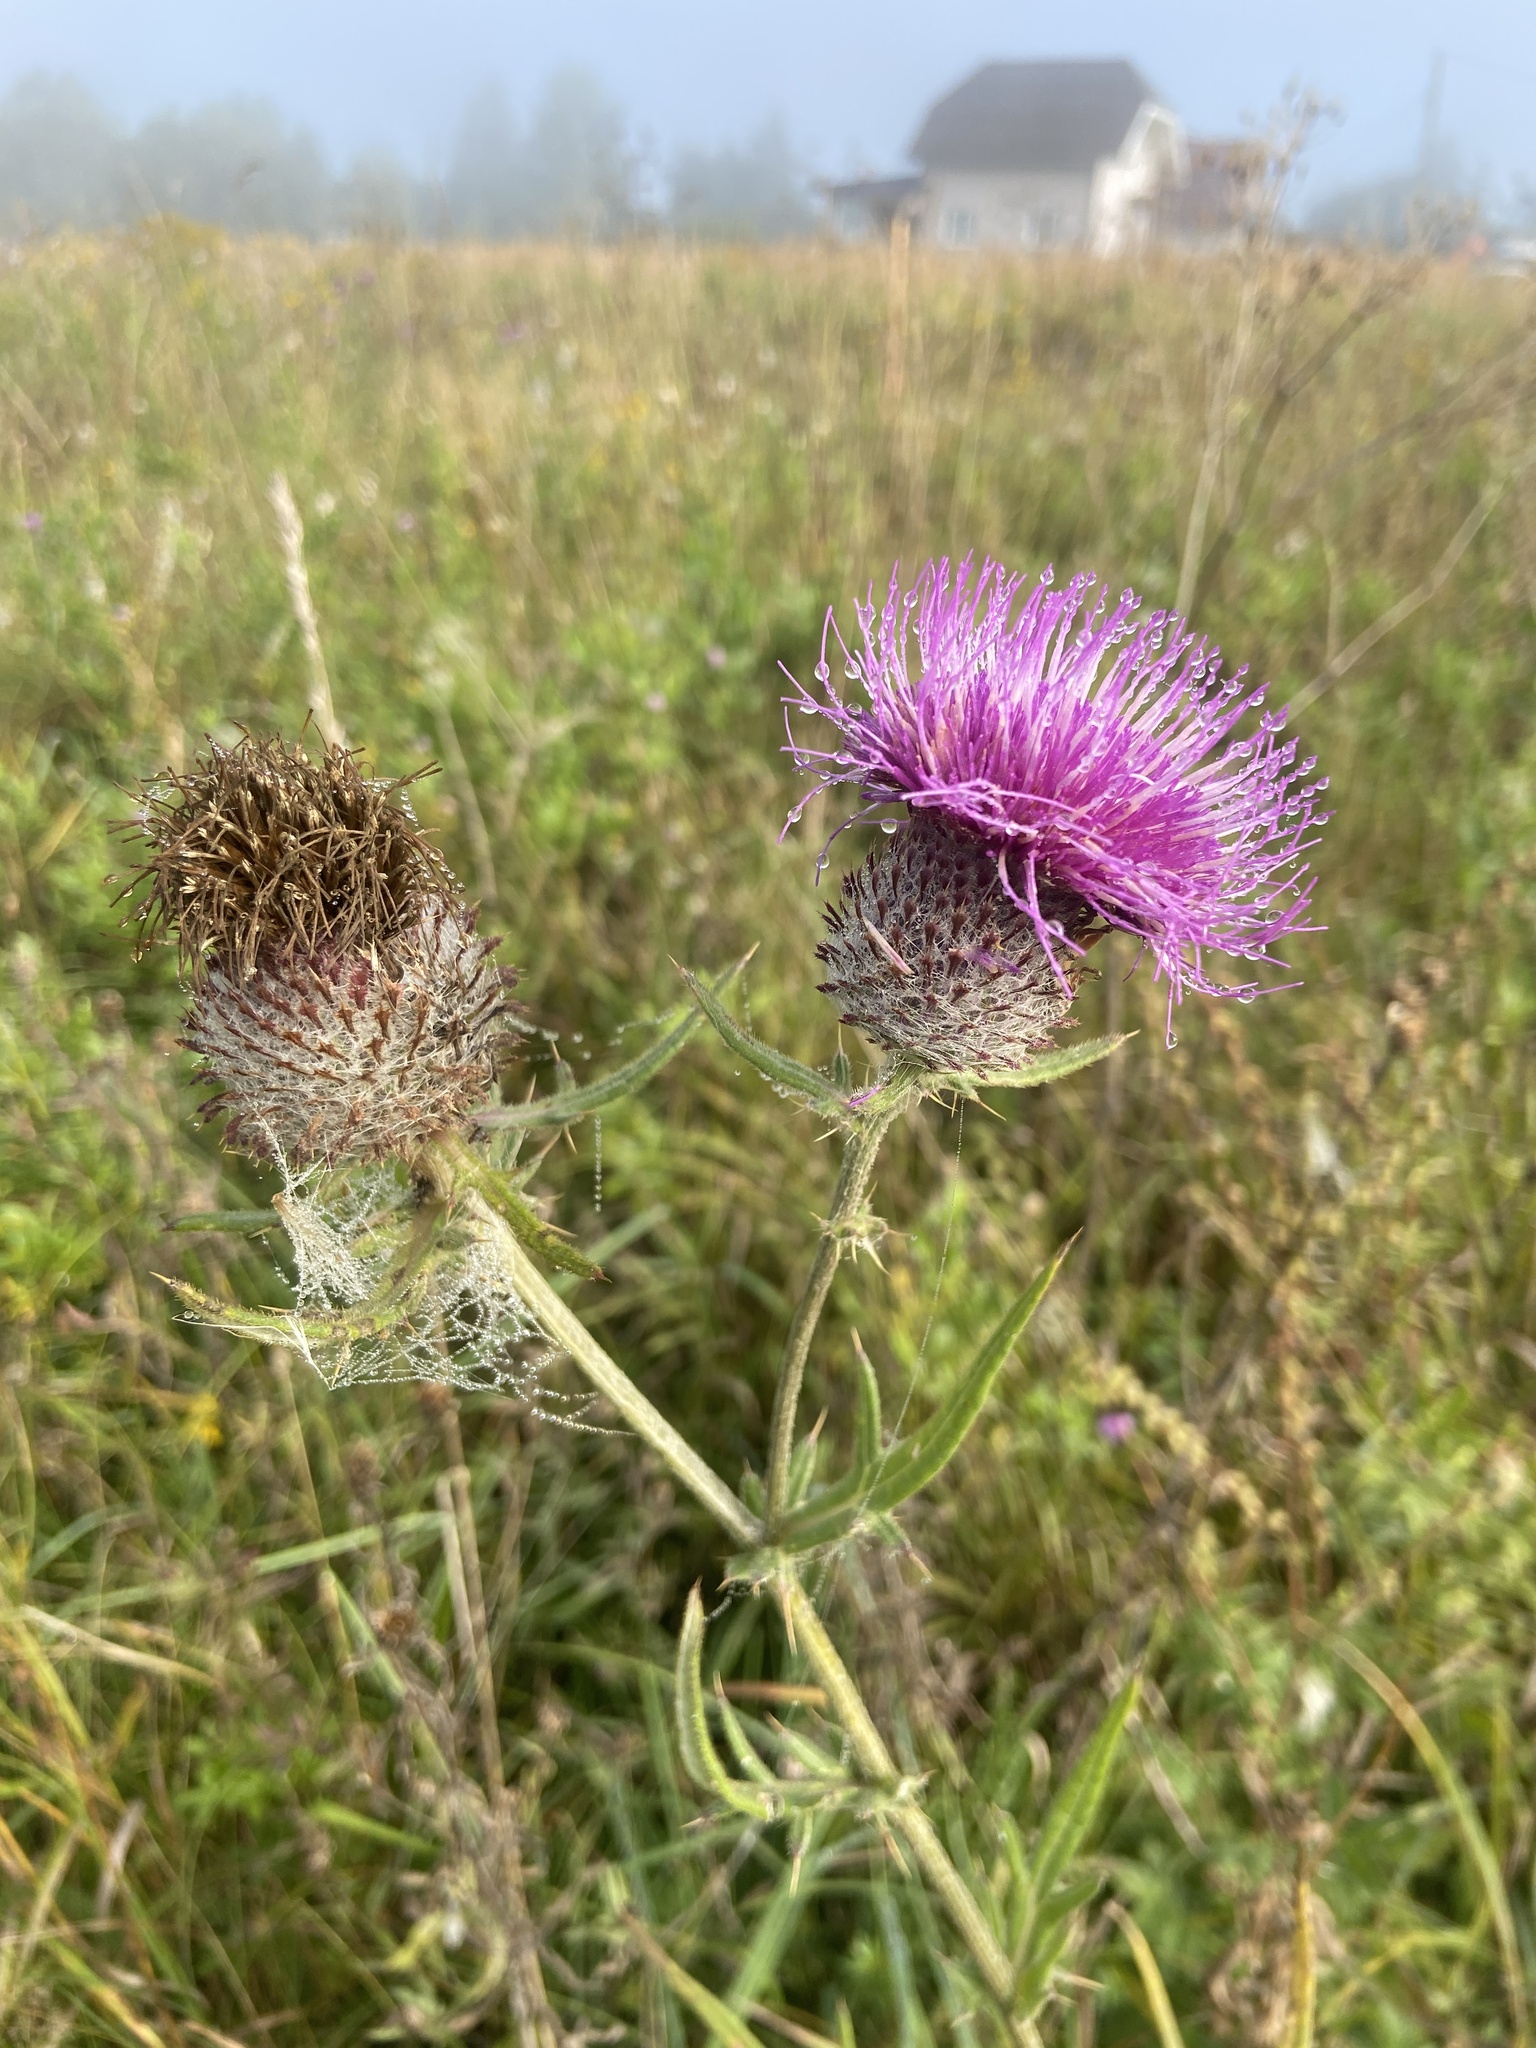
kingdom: Plantae
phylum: Tracheophyta
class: Magnoliopsida
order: Asterales
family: Asteraceae
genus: Lophiolepis
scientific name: Lophiolepis decussata
